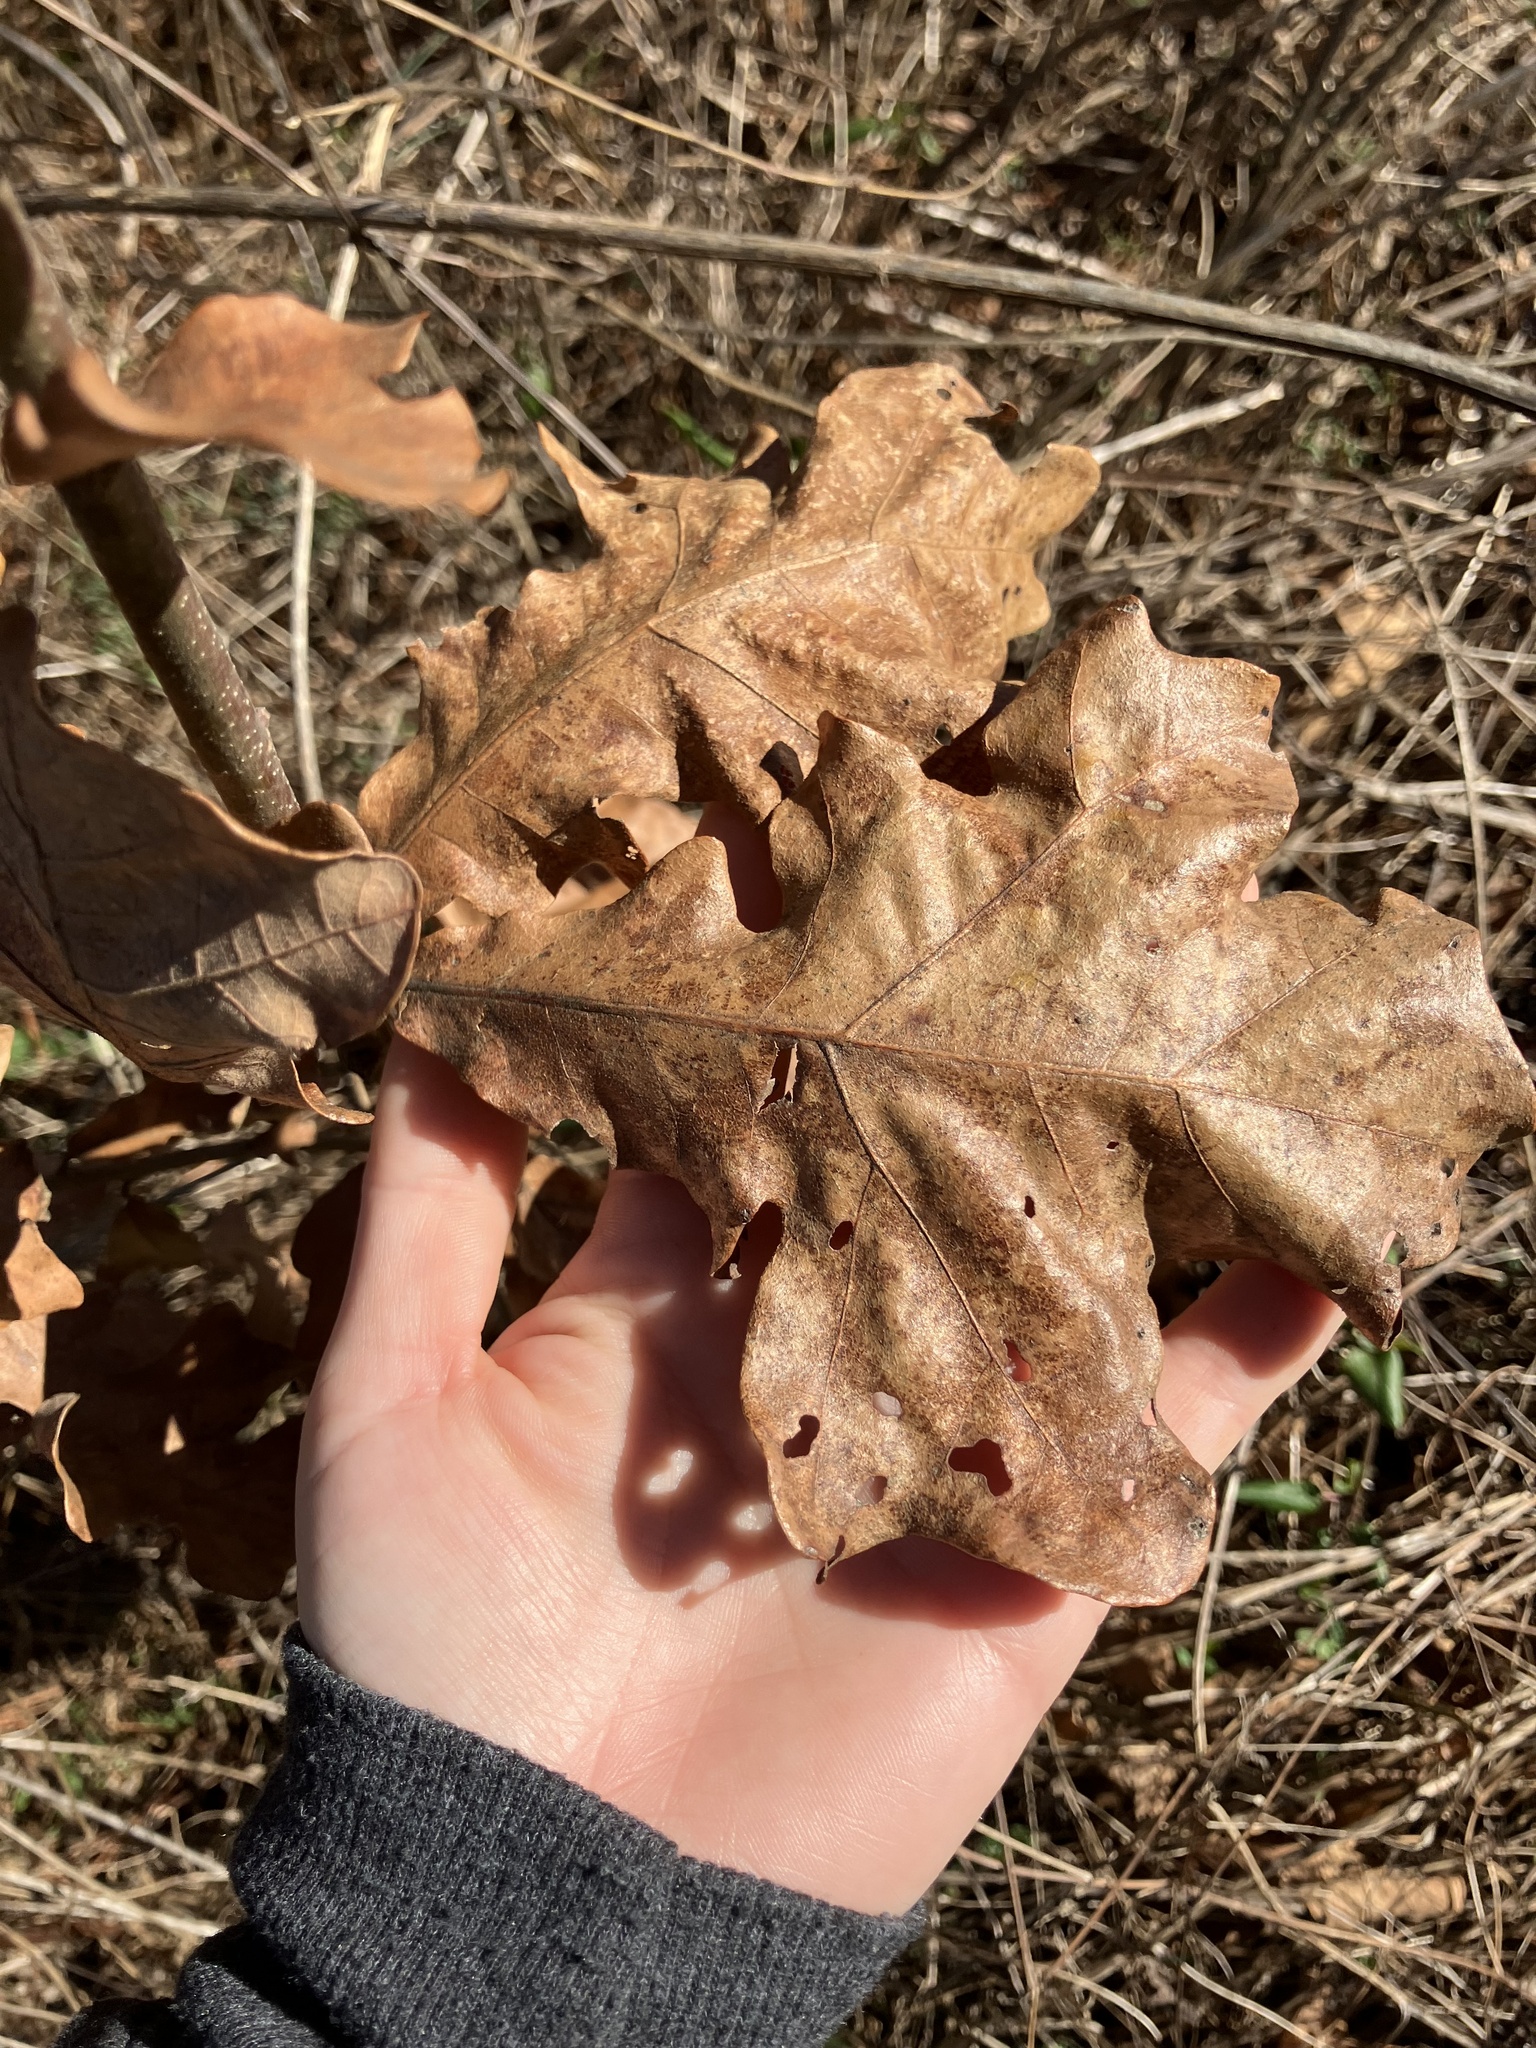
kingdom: Plantae
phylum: Tracheophyta
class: Magnoliopsida
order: Fagales
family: Fagaceae
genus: Quercus
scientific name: Quercus stellata
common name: Post oak
